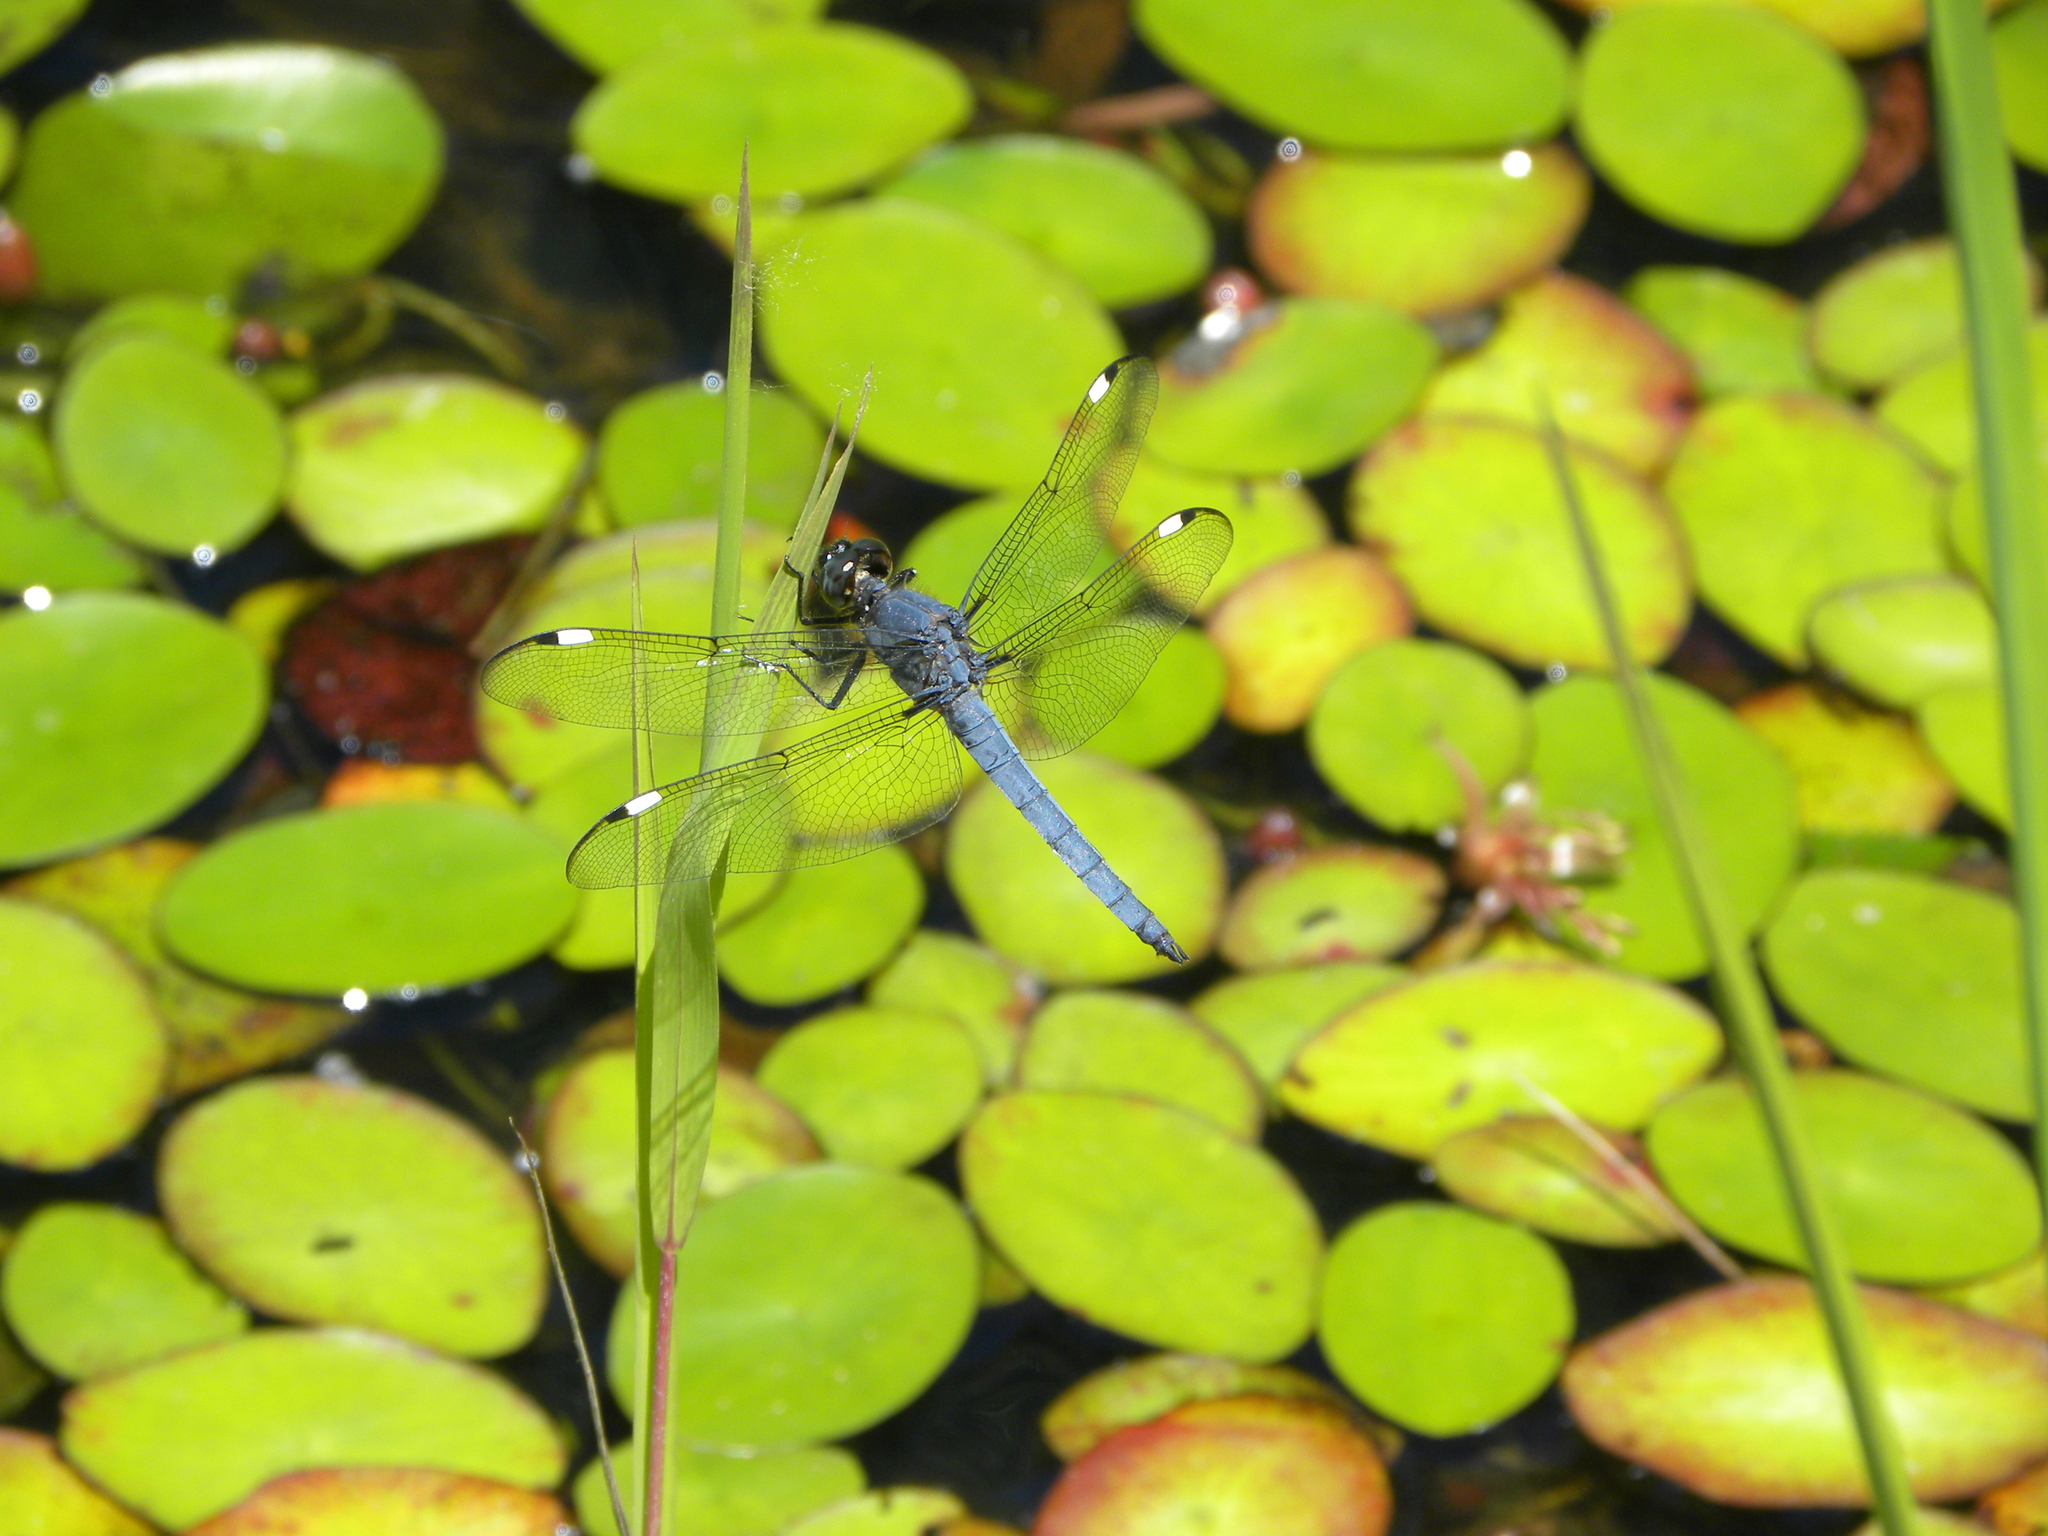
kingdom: Animalia
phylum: Arthropoda
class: Insecta
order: Odonata
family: Libellulidae
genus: Libellula
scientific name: Libellula cyanea
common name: Spangled skimmer
